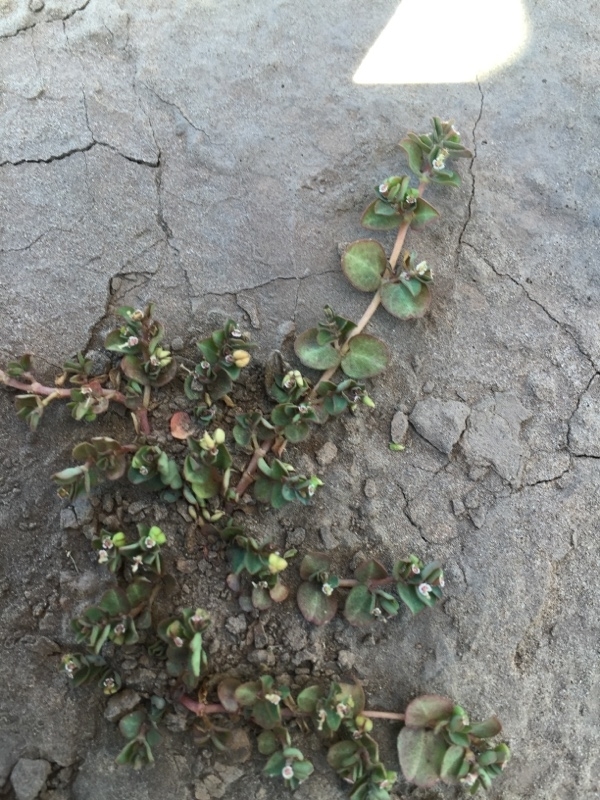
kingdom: Plantae
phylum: Tracheophyta
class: Magnoliopsida
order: Malpighiales
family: Euphorbiaceae
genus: Euphorbia
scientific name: Euphorbia serpens
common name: Matted sandmat
